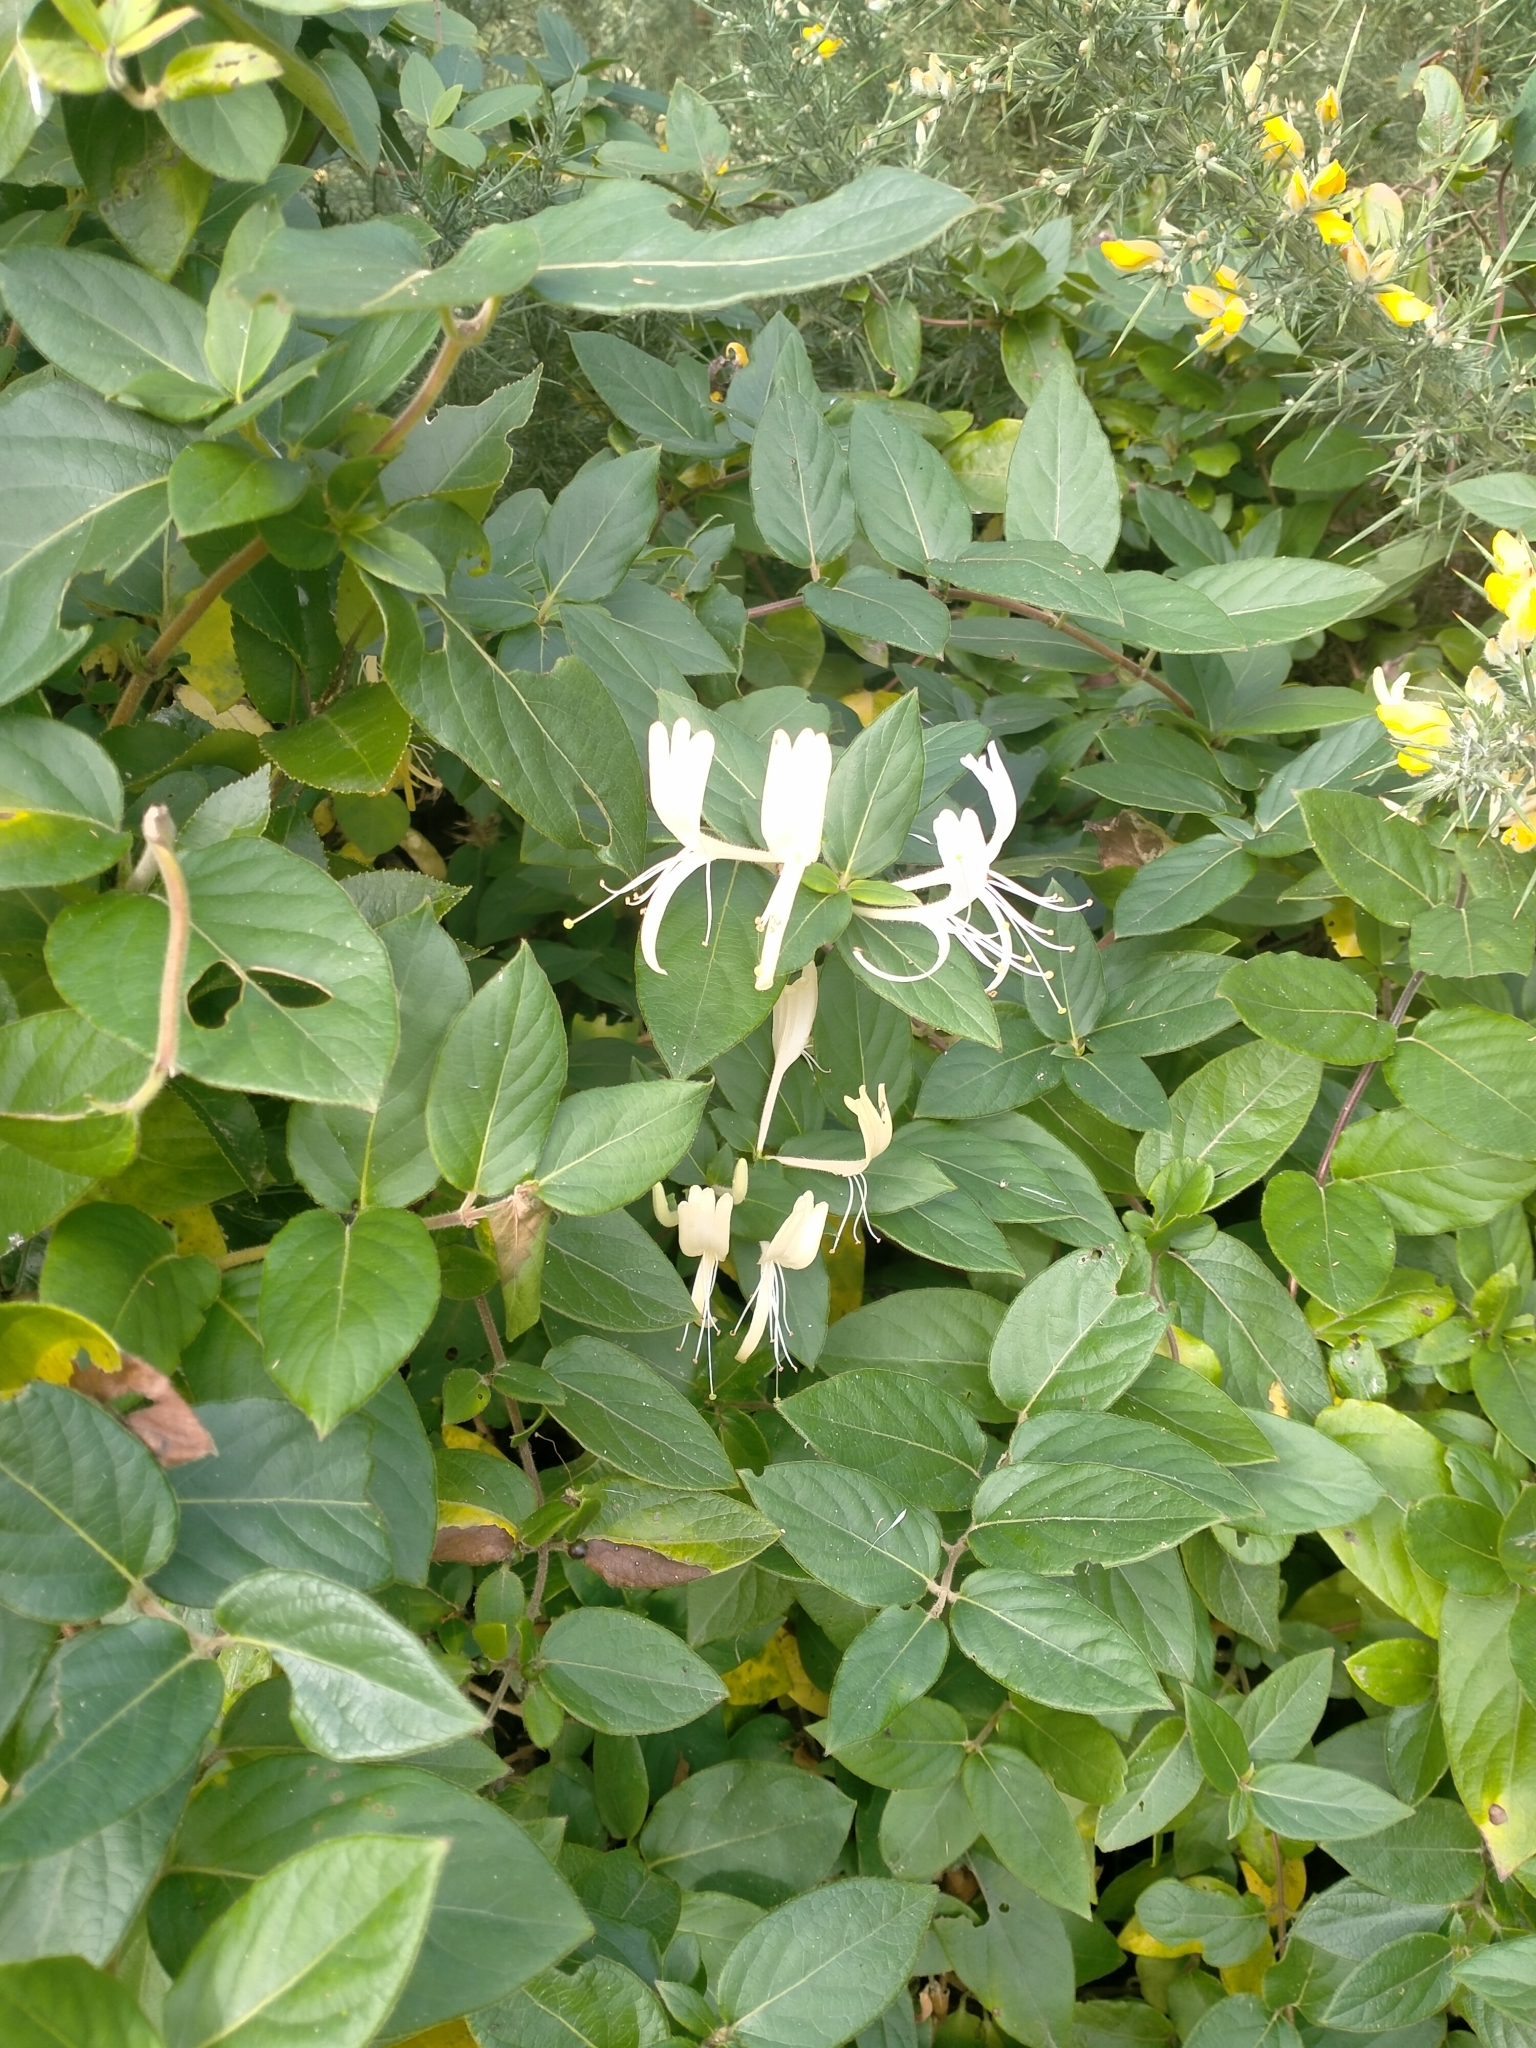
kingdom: Plantae
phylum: Tracheophyta
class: Magnoliopsida
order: Dipsacales
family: Caprifoliaceae
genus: Lonicera
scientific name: Lonicera japonica
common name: Japanese honeysuckle
